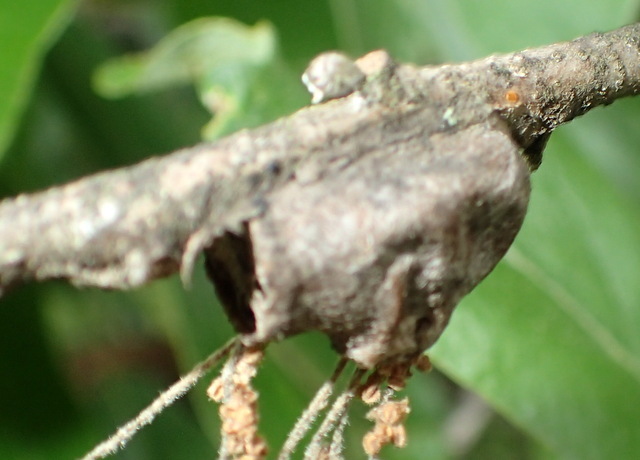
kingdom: Animalia
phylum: Arthropoda
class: Insecta
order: Lepidoptera
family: Megalopygidae
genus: Megalopyge
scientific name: Megalopyge
